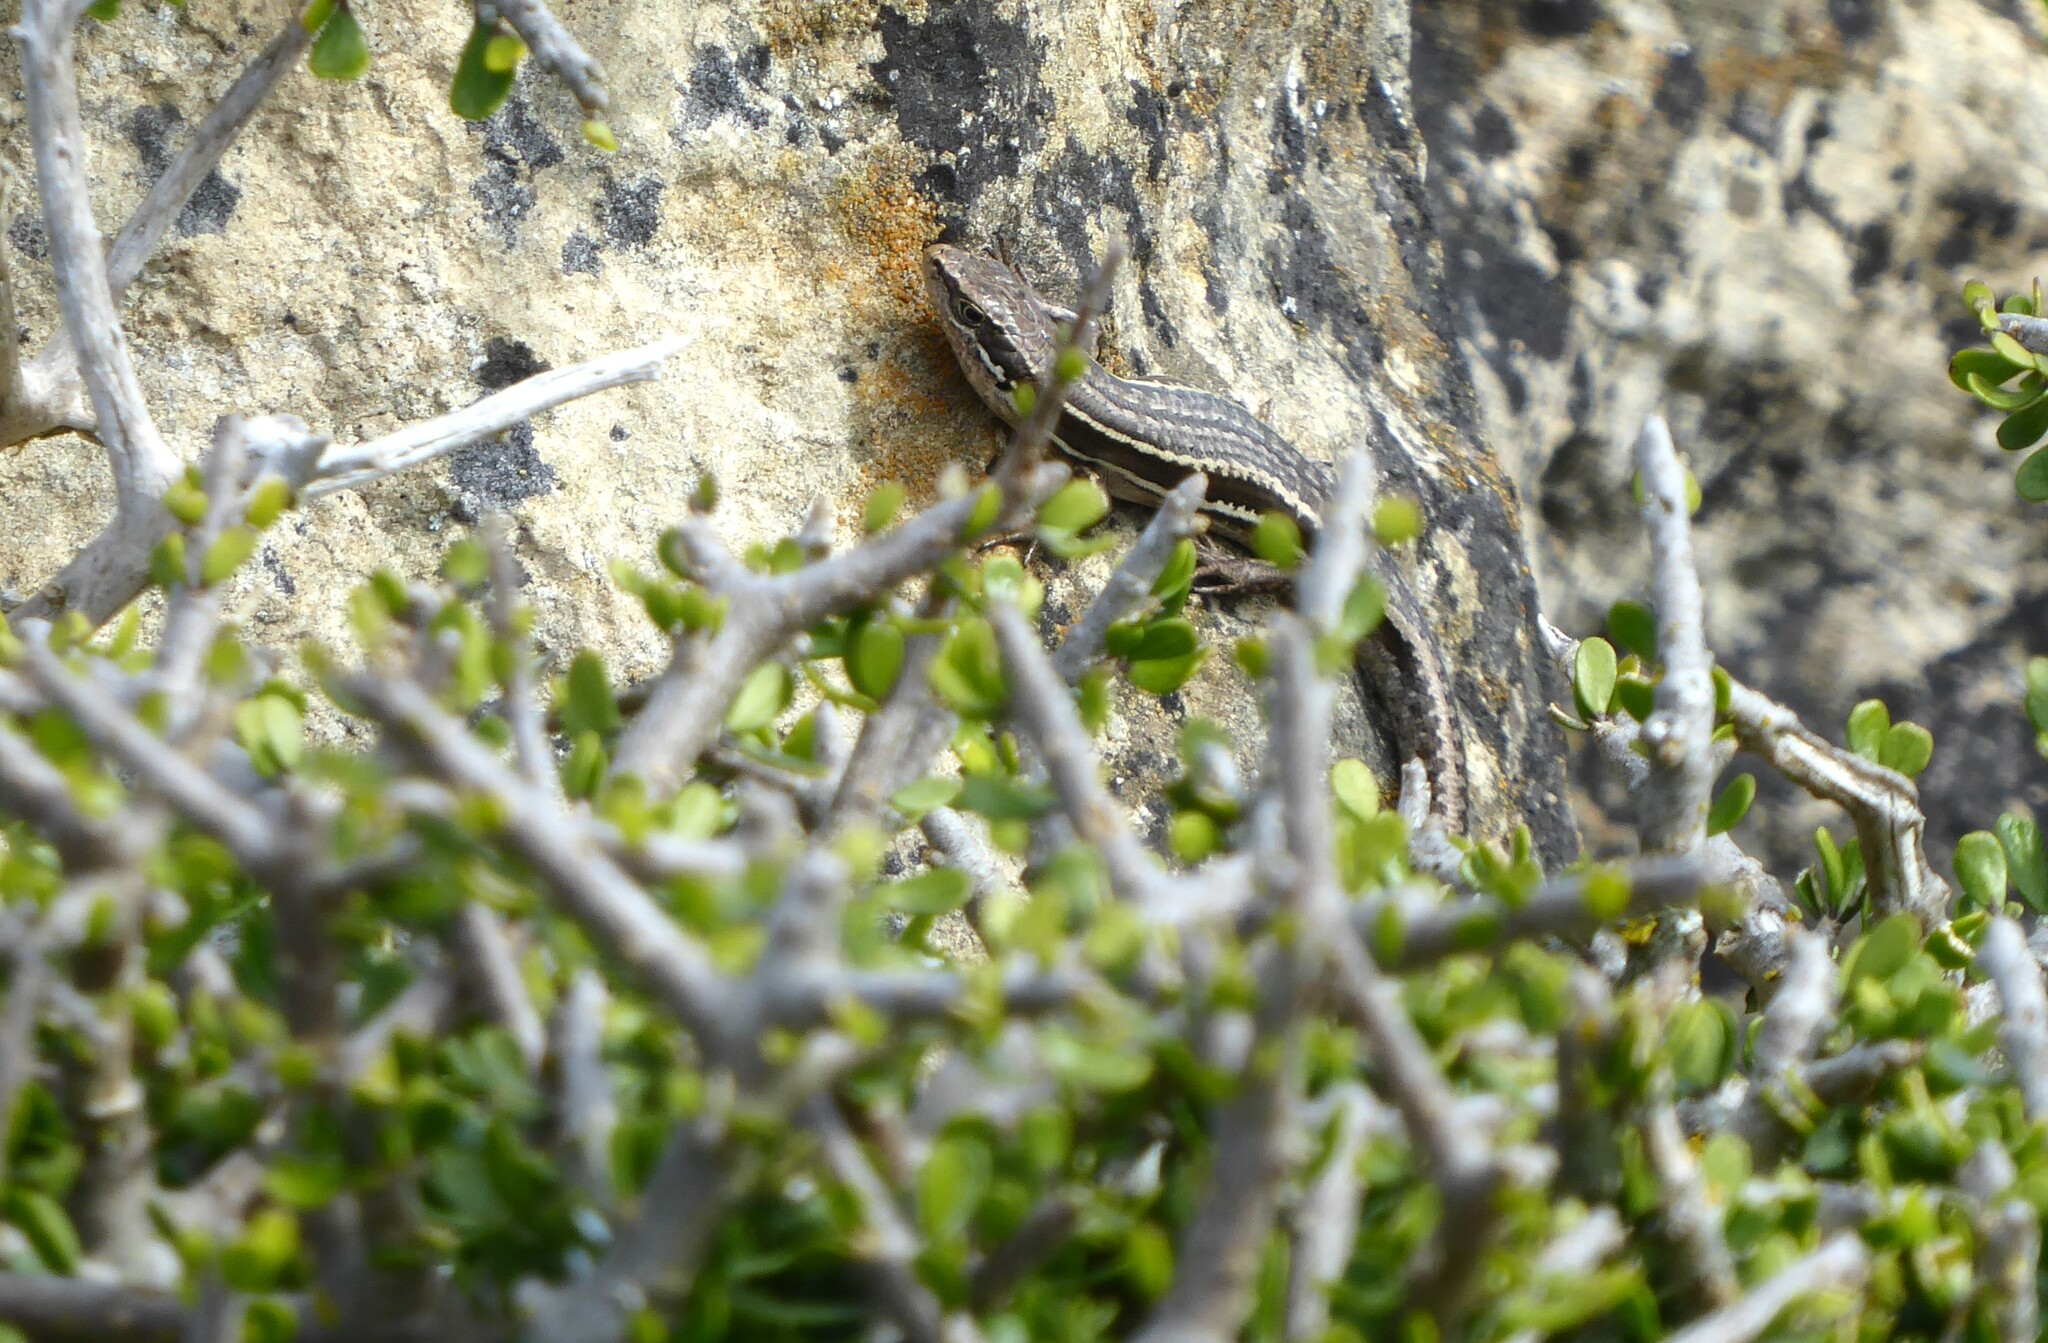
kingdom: Animalia
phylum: Chordata
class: Squamata
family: Scincidae
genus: Oligosoma
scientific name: Oligosoma maccanni
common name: Mccann’s skink
